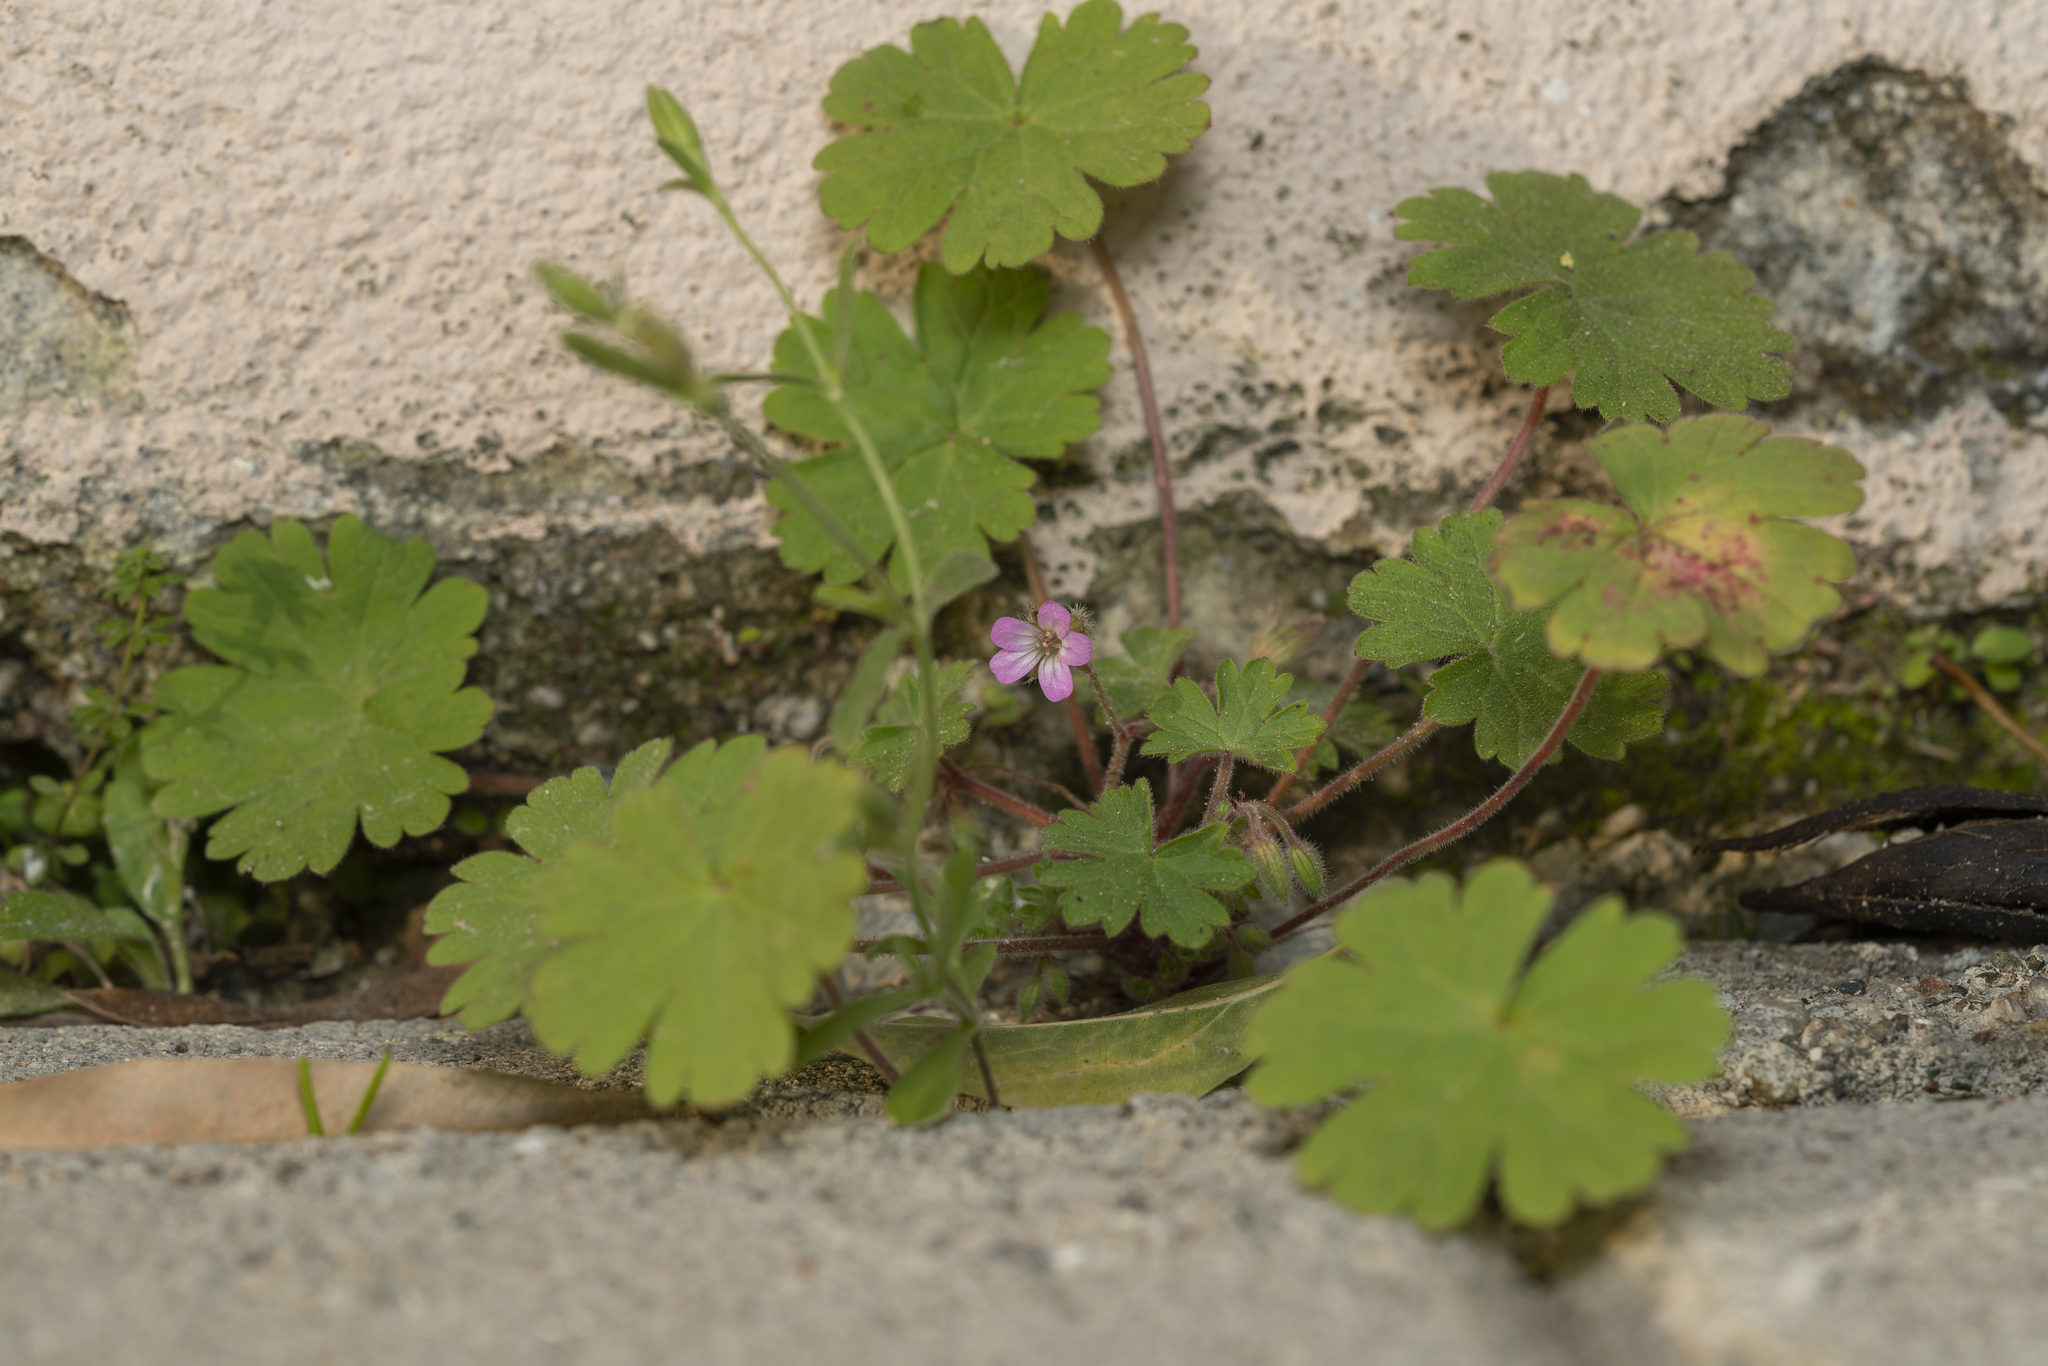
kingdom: Plantae
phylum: Tracheophyta
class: Magnoliopsida
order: Geraniales
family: Geraniaceae
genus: Geranium
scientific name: Geranium rotundifolium
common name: Round-leaved crane's-bill
